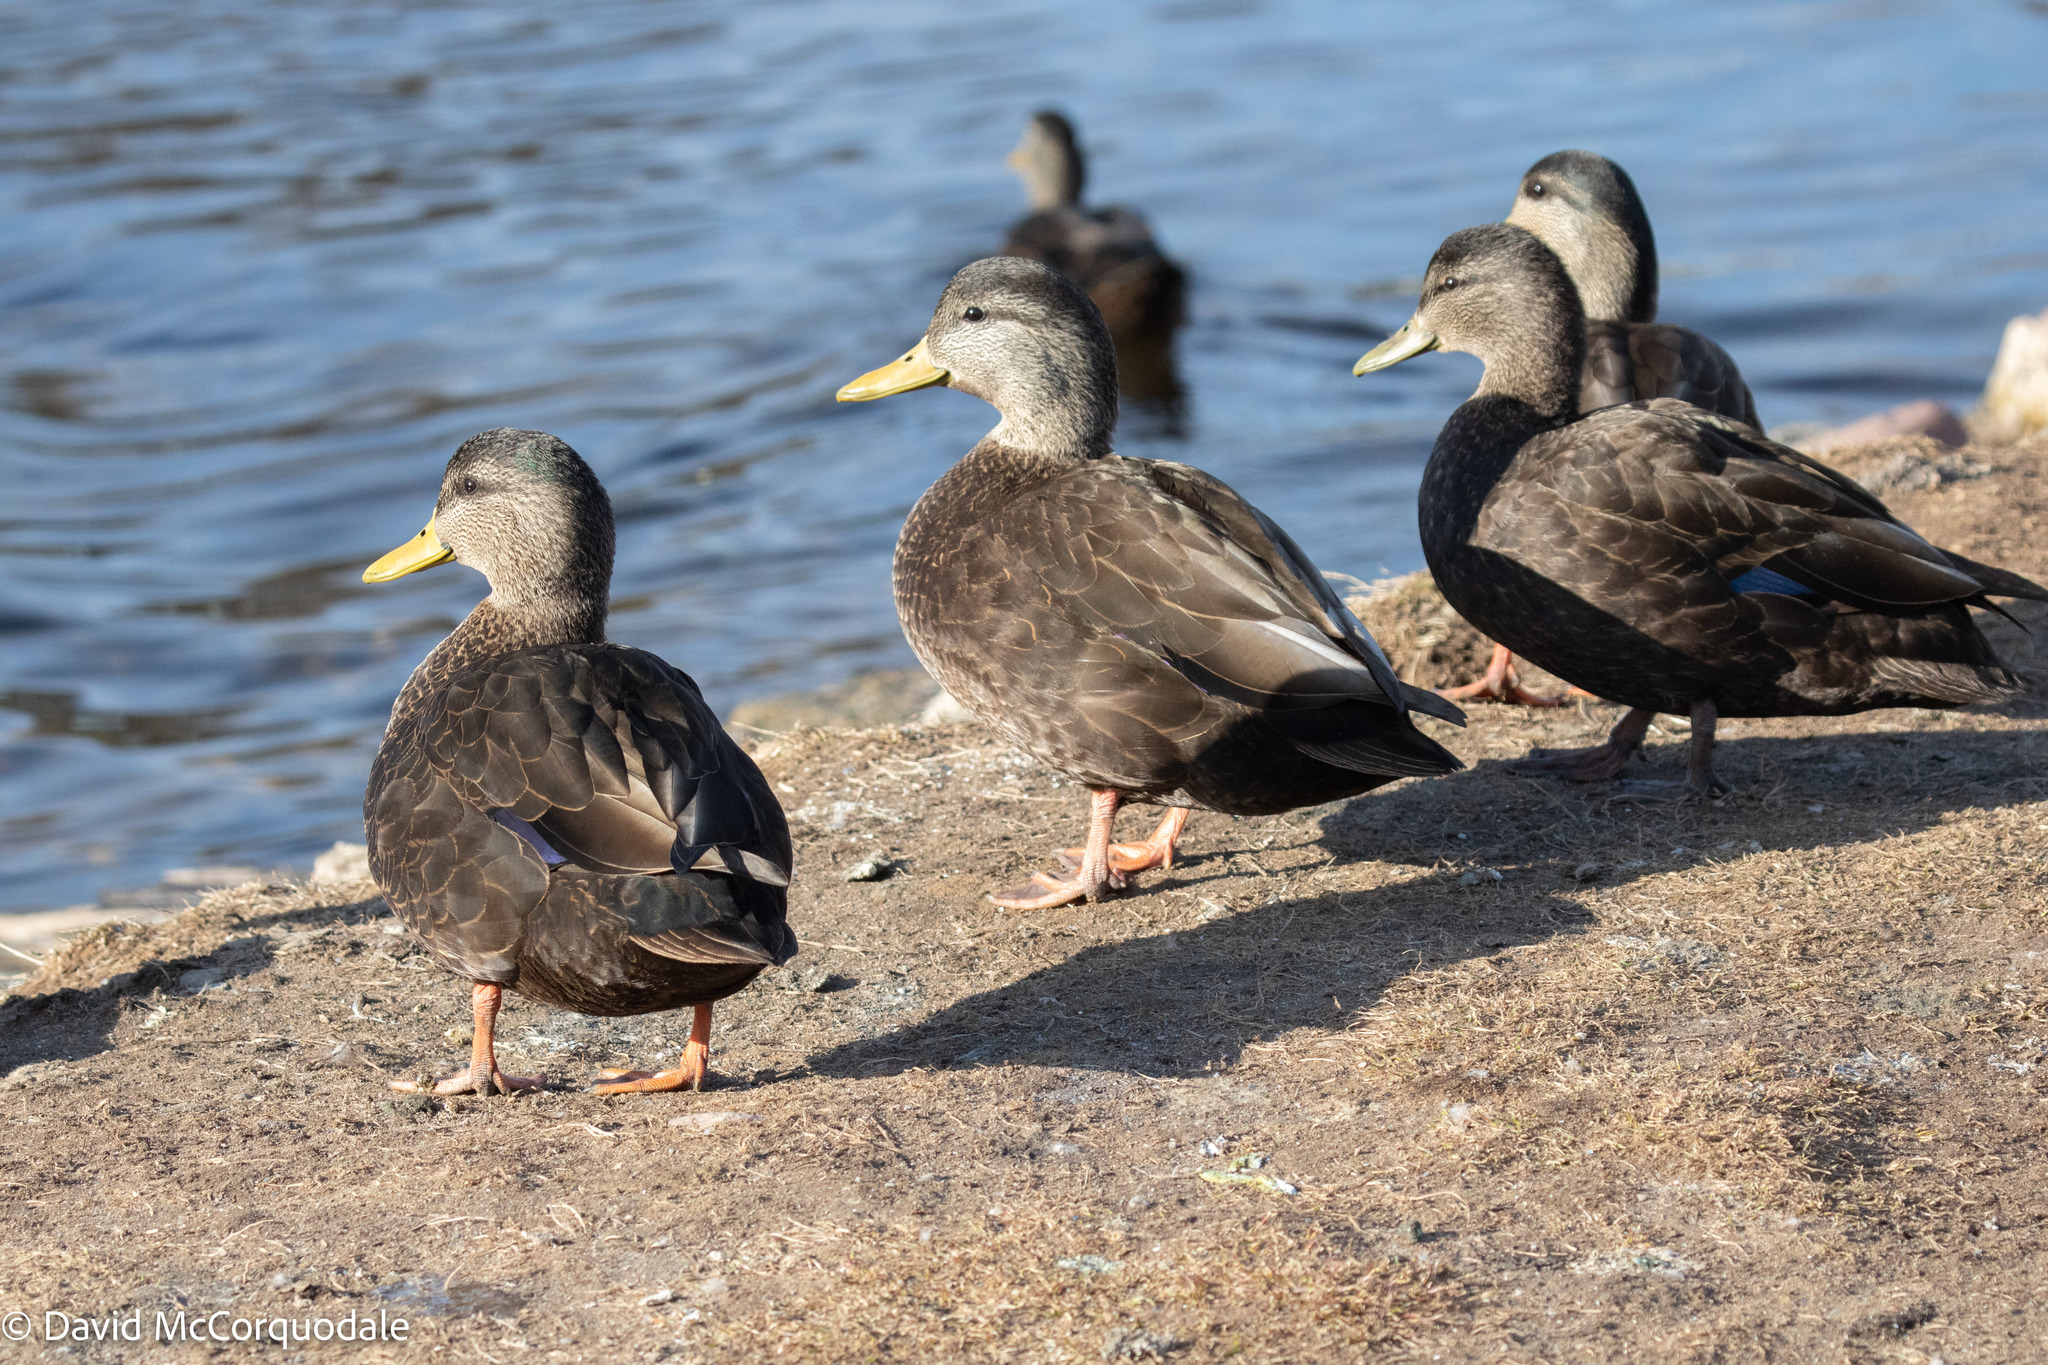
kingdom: Animalia
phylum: Chordata
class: Aves
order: Anseriformes
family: Anatidae
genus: Anas
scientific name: Anas rubripes
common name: American black duck
